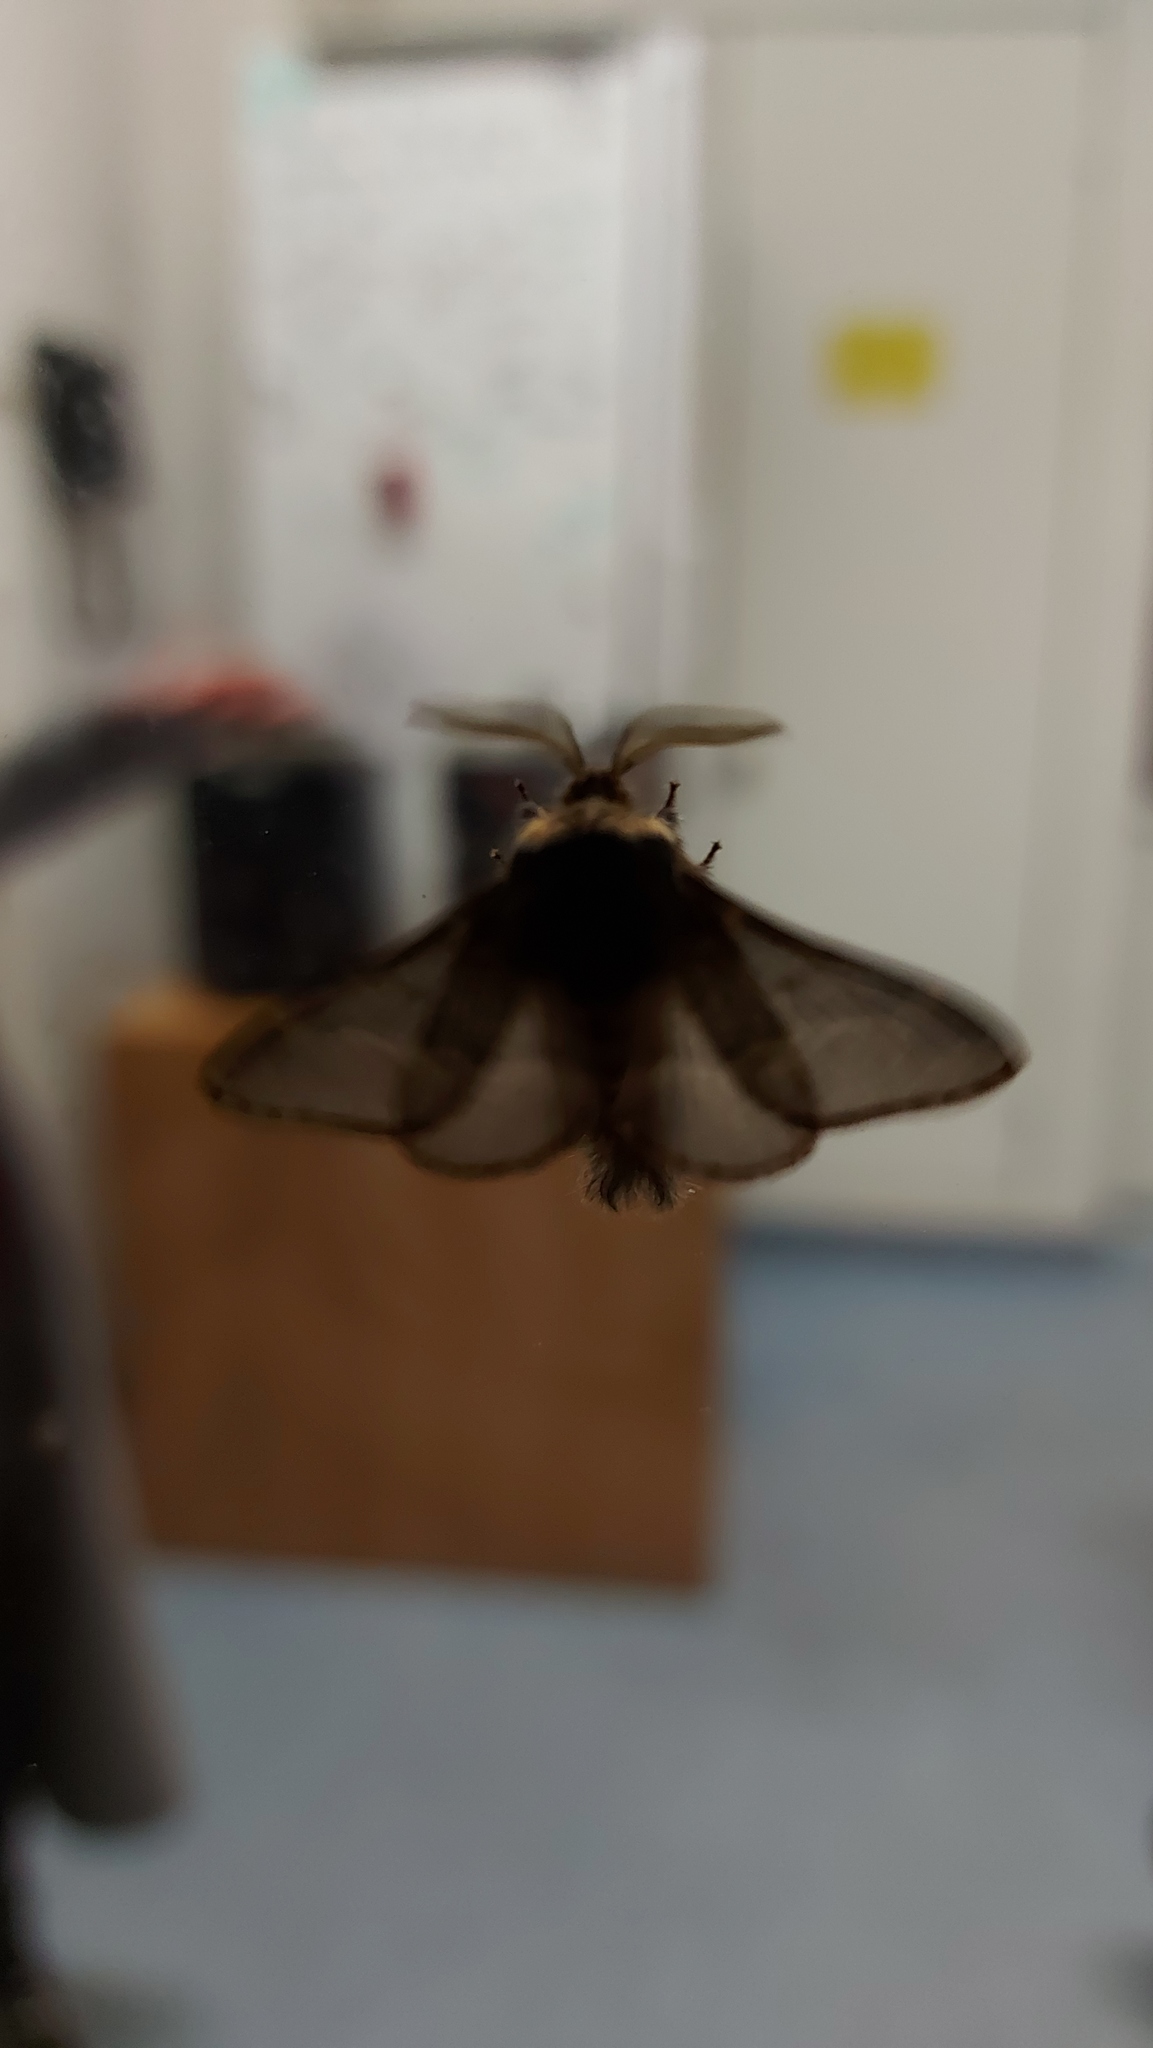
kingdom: Animalia
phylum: Arthropoda
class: Insecta
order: Lepidoptera
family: Lasiocampidae
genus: Poecilocampa
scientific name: Poecilocampa populi
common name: December moth
